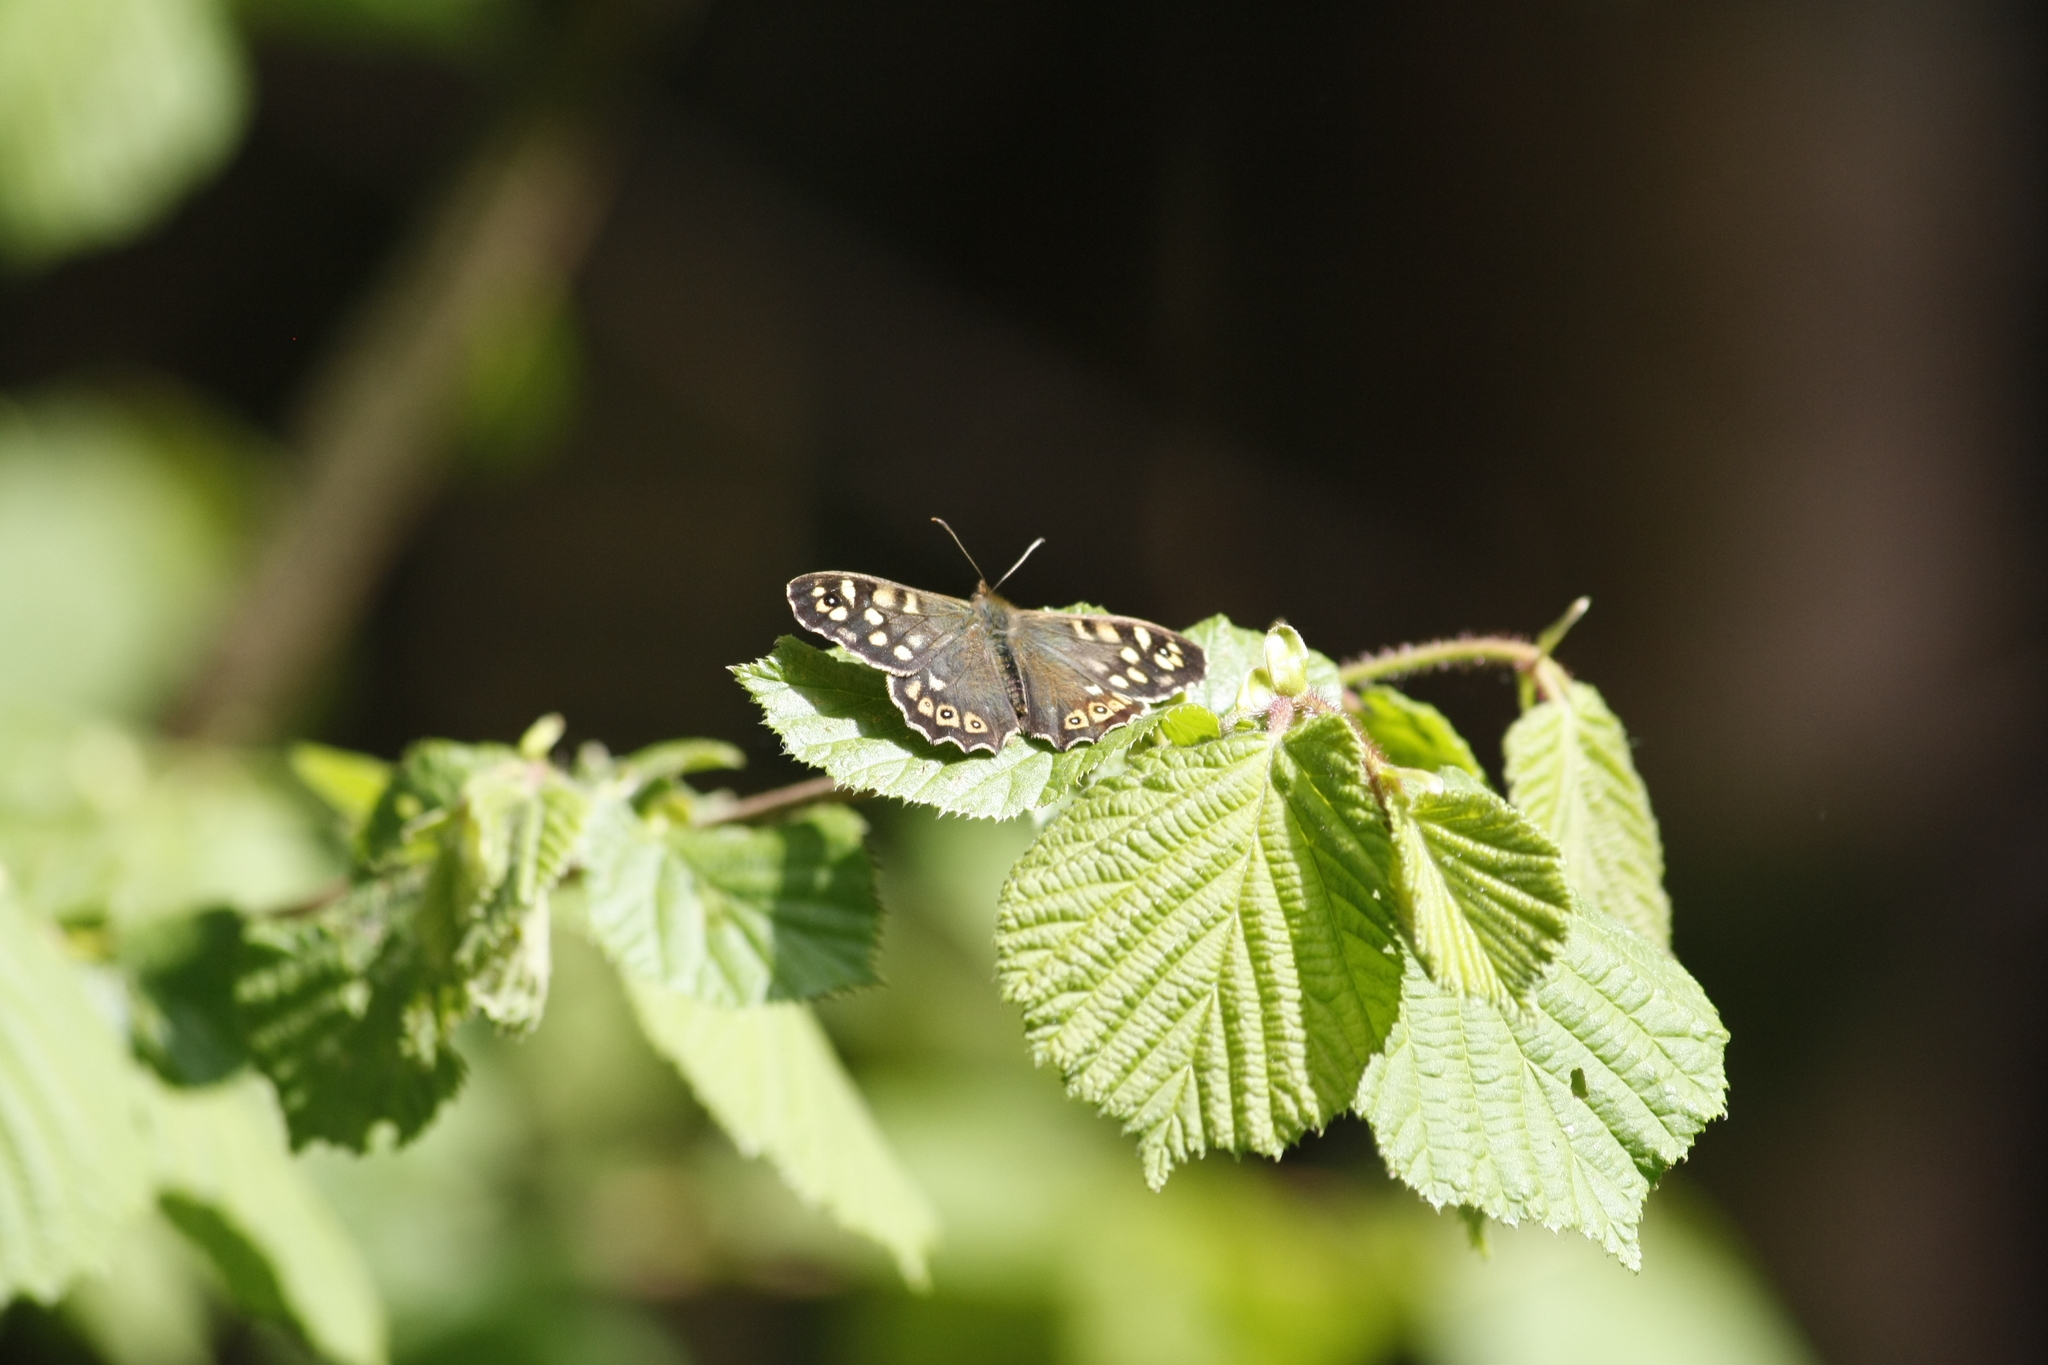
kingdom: Animalia
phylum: Arthropoda
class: Insecta
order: Lepidoptera
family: Nymphalidae
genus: Pararge
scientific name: Pararge aegeria
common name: Speckled wood
